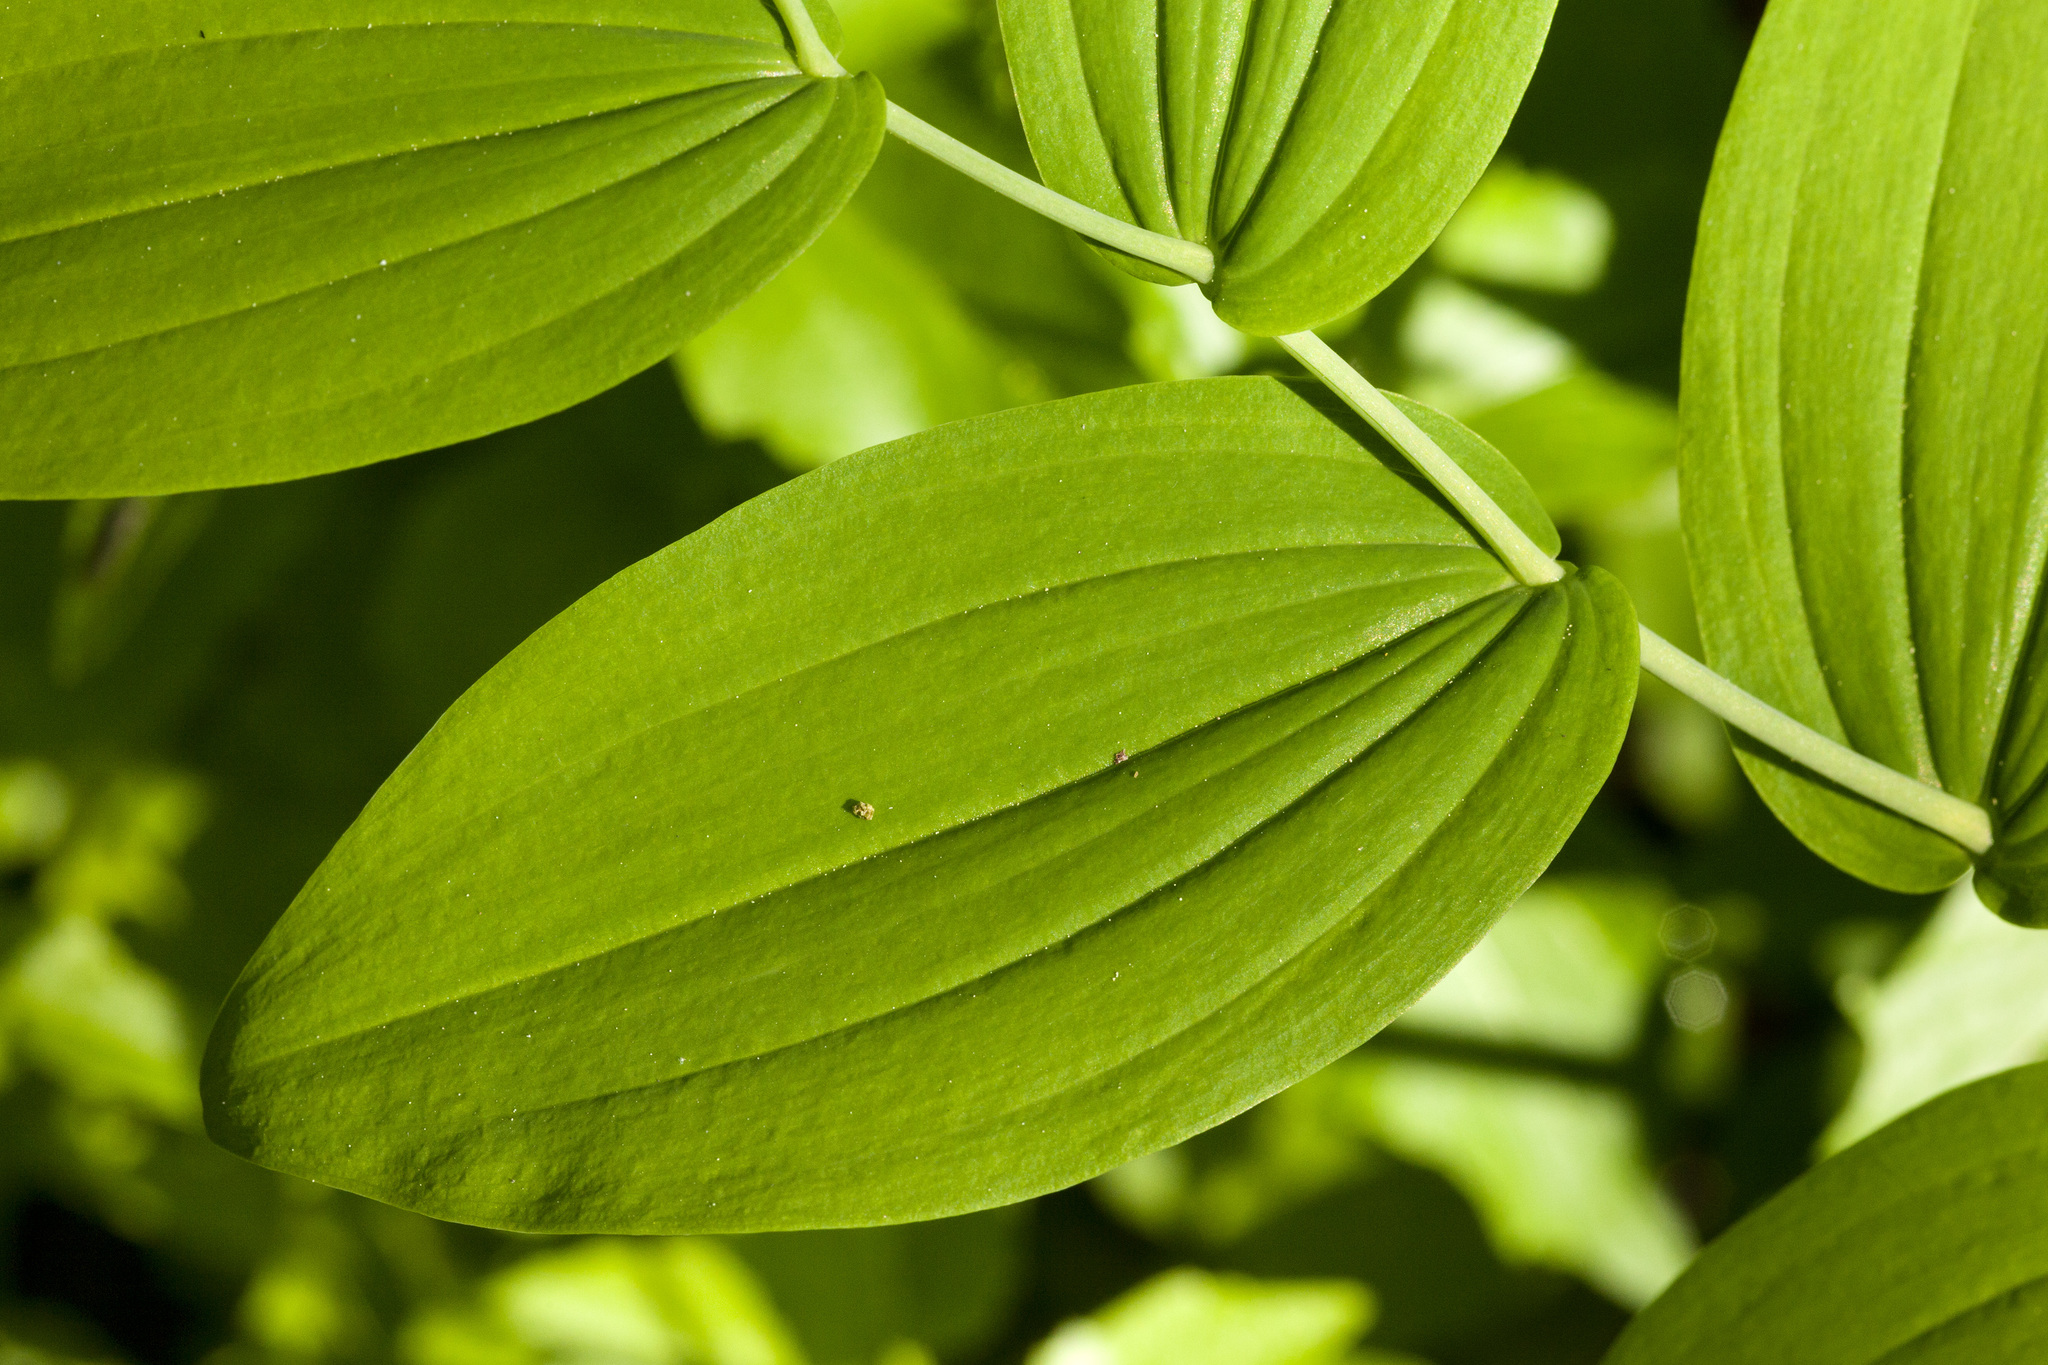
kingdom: Plantae
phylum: Tracheophyta
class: Liliopsida
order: Liliales
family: Liliaceae
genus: Streptopus
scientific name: Streptopus amplexifolius
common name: Clasp twisted stalk
